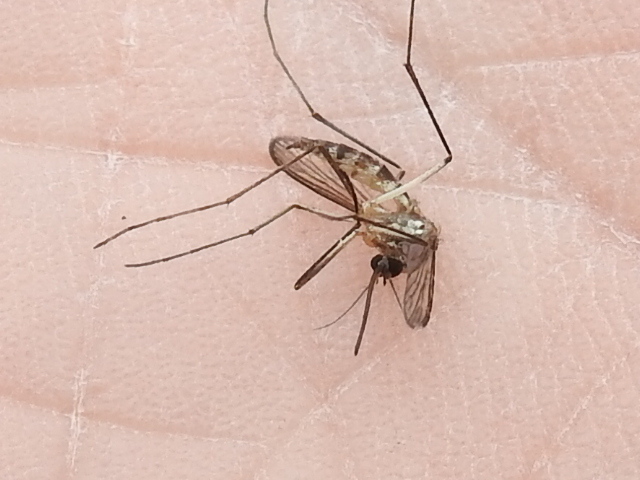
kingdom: Animalia
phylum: Arthropoda
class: Insecta
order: Diptera
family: Culicidae
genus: Aedes
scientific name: Aedes trivittatus
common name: Plains floodwater mosquito
